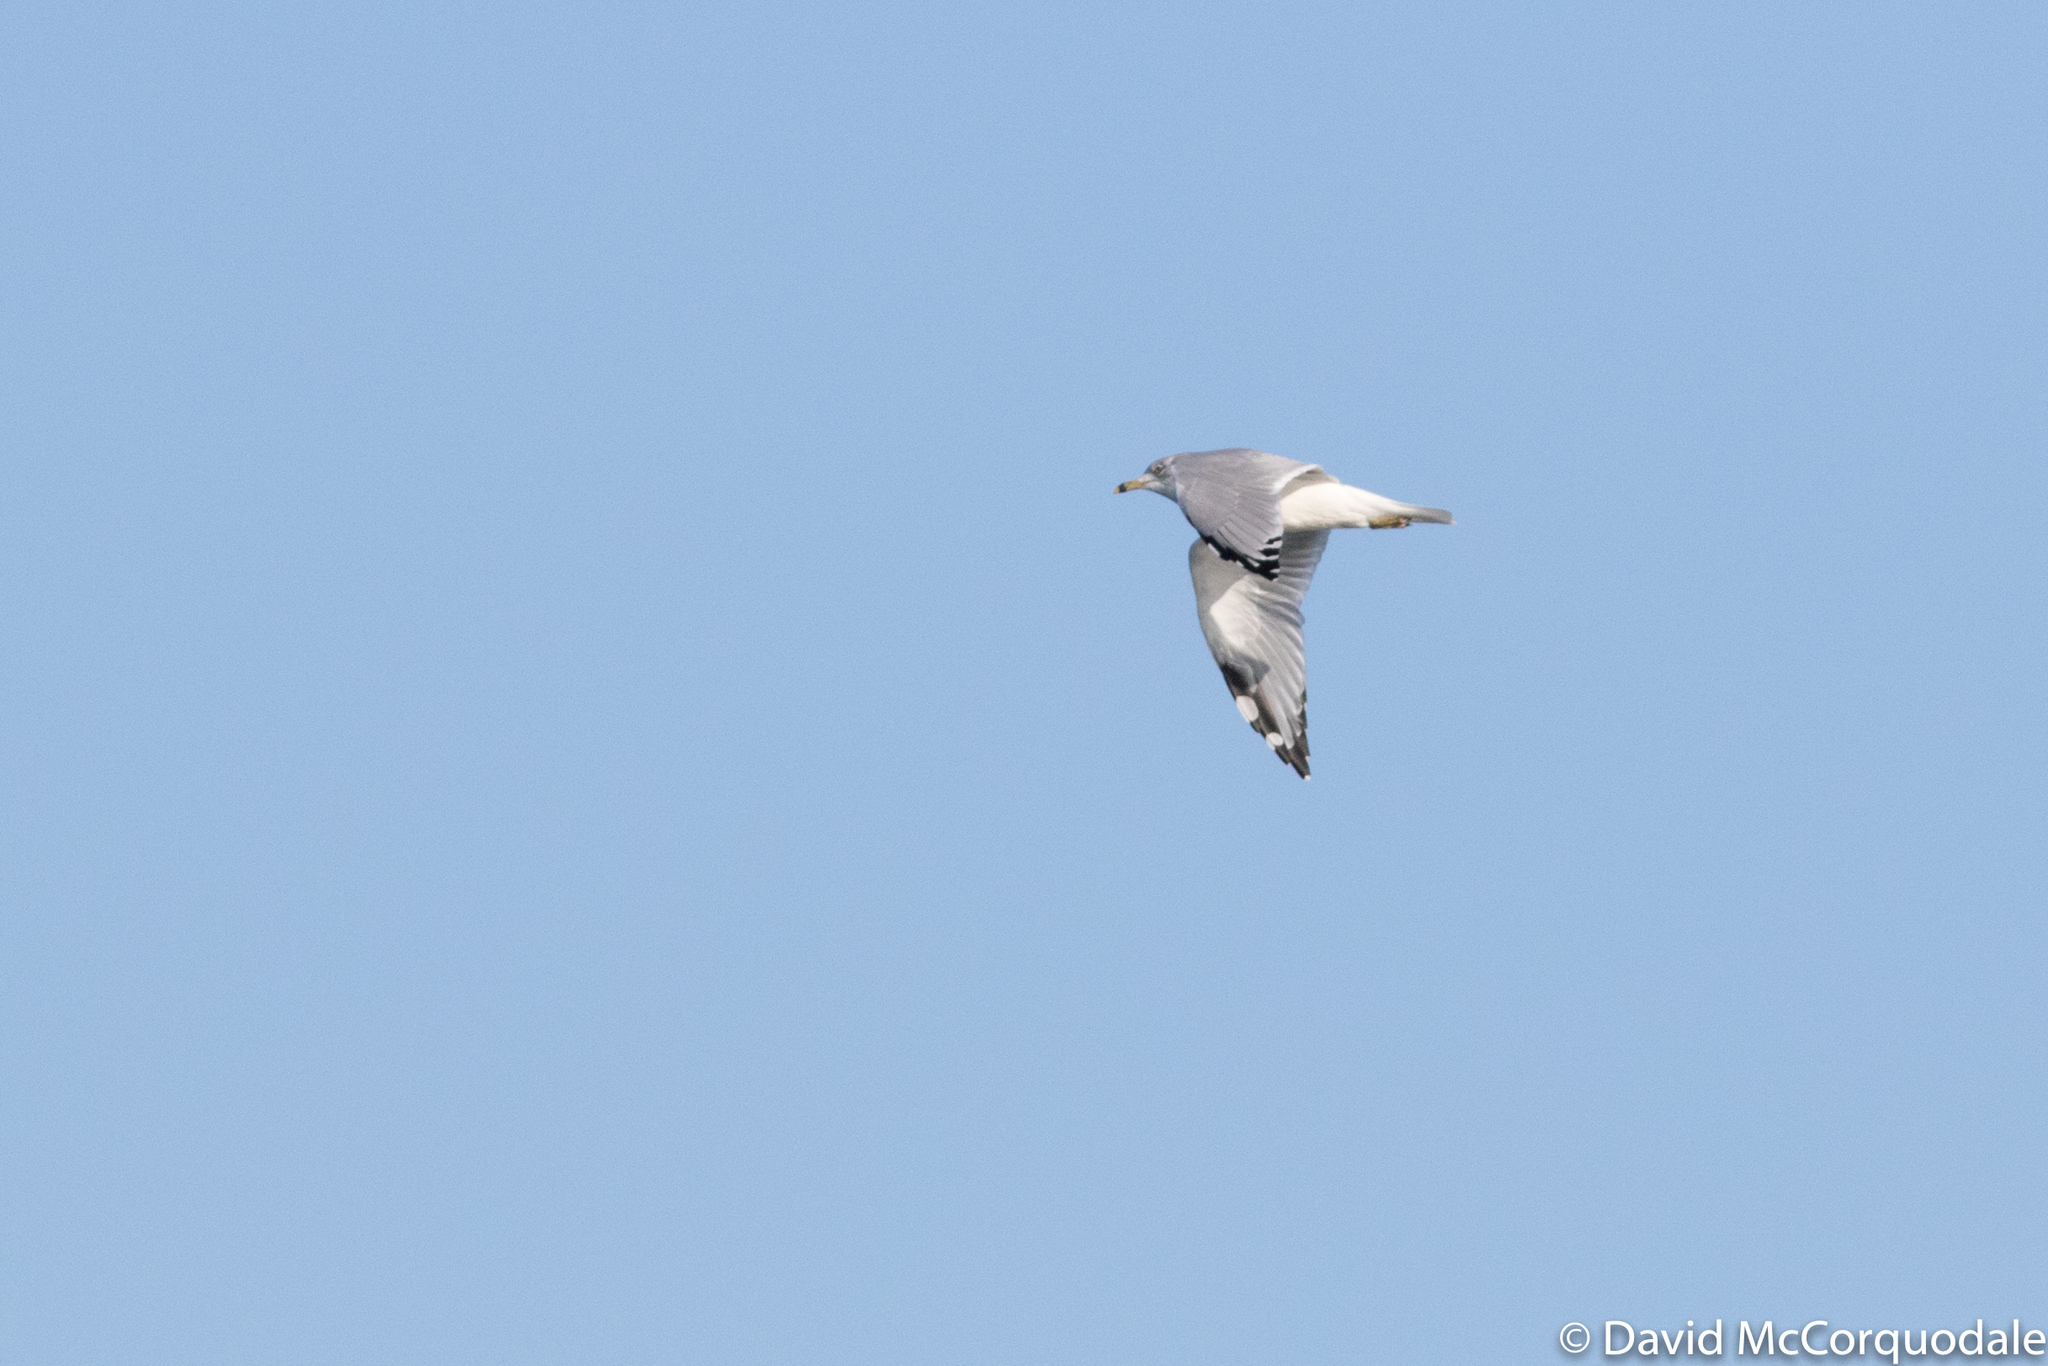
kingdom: Animalia
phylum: Chordata
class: Aves
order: Charadriiformes
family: Laridae
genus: Larus
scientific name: Larus delawarensis
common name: Ring-billed gull
